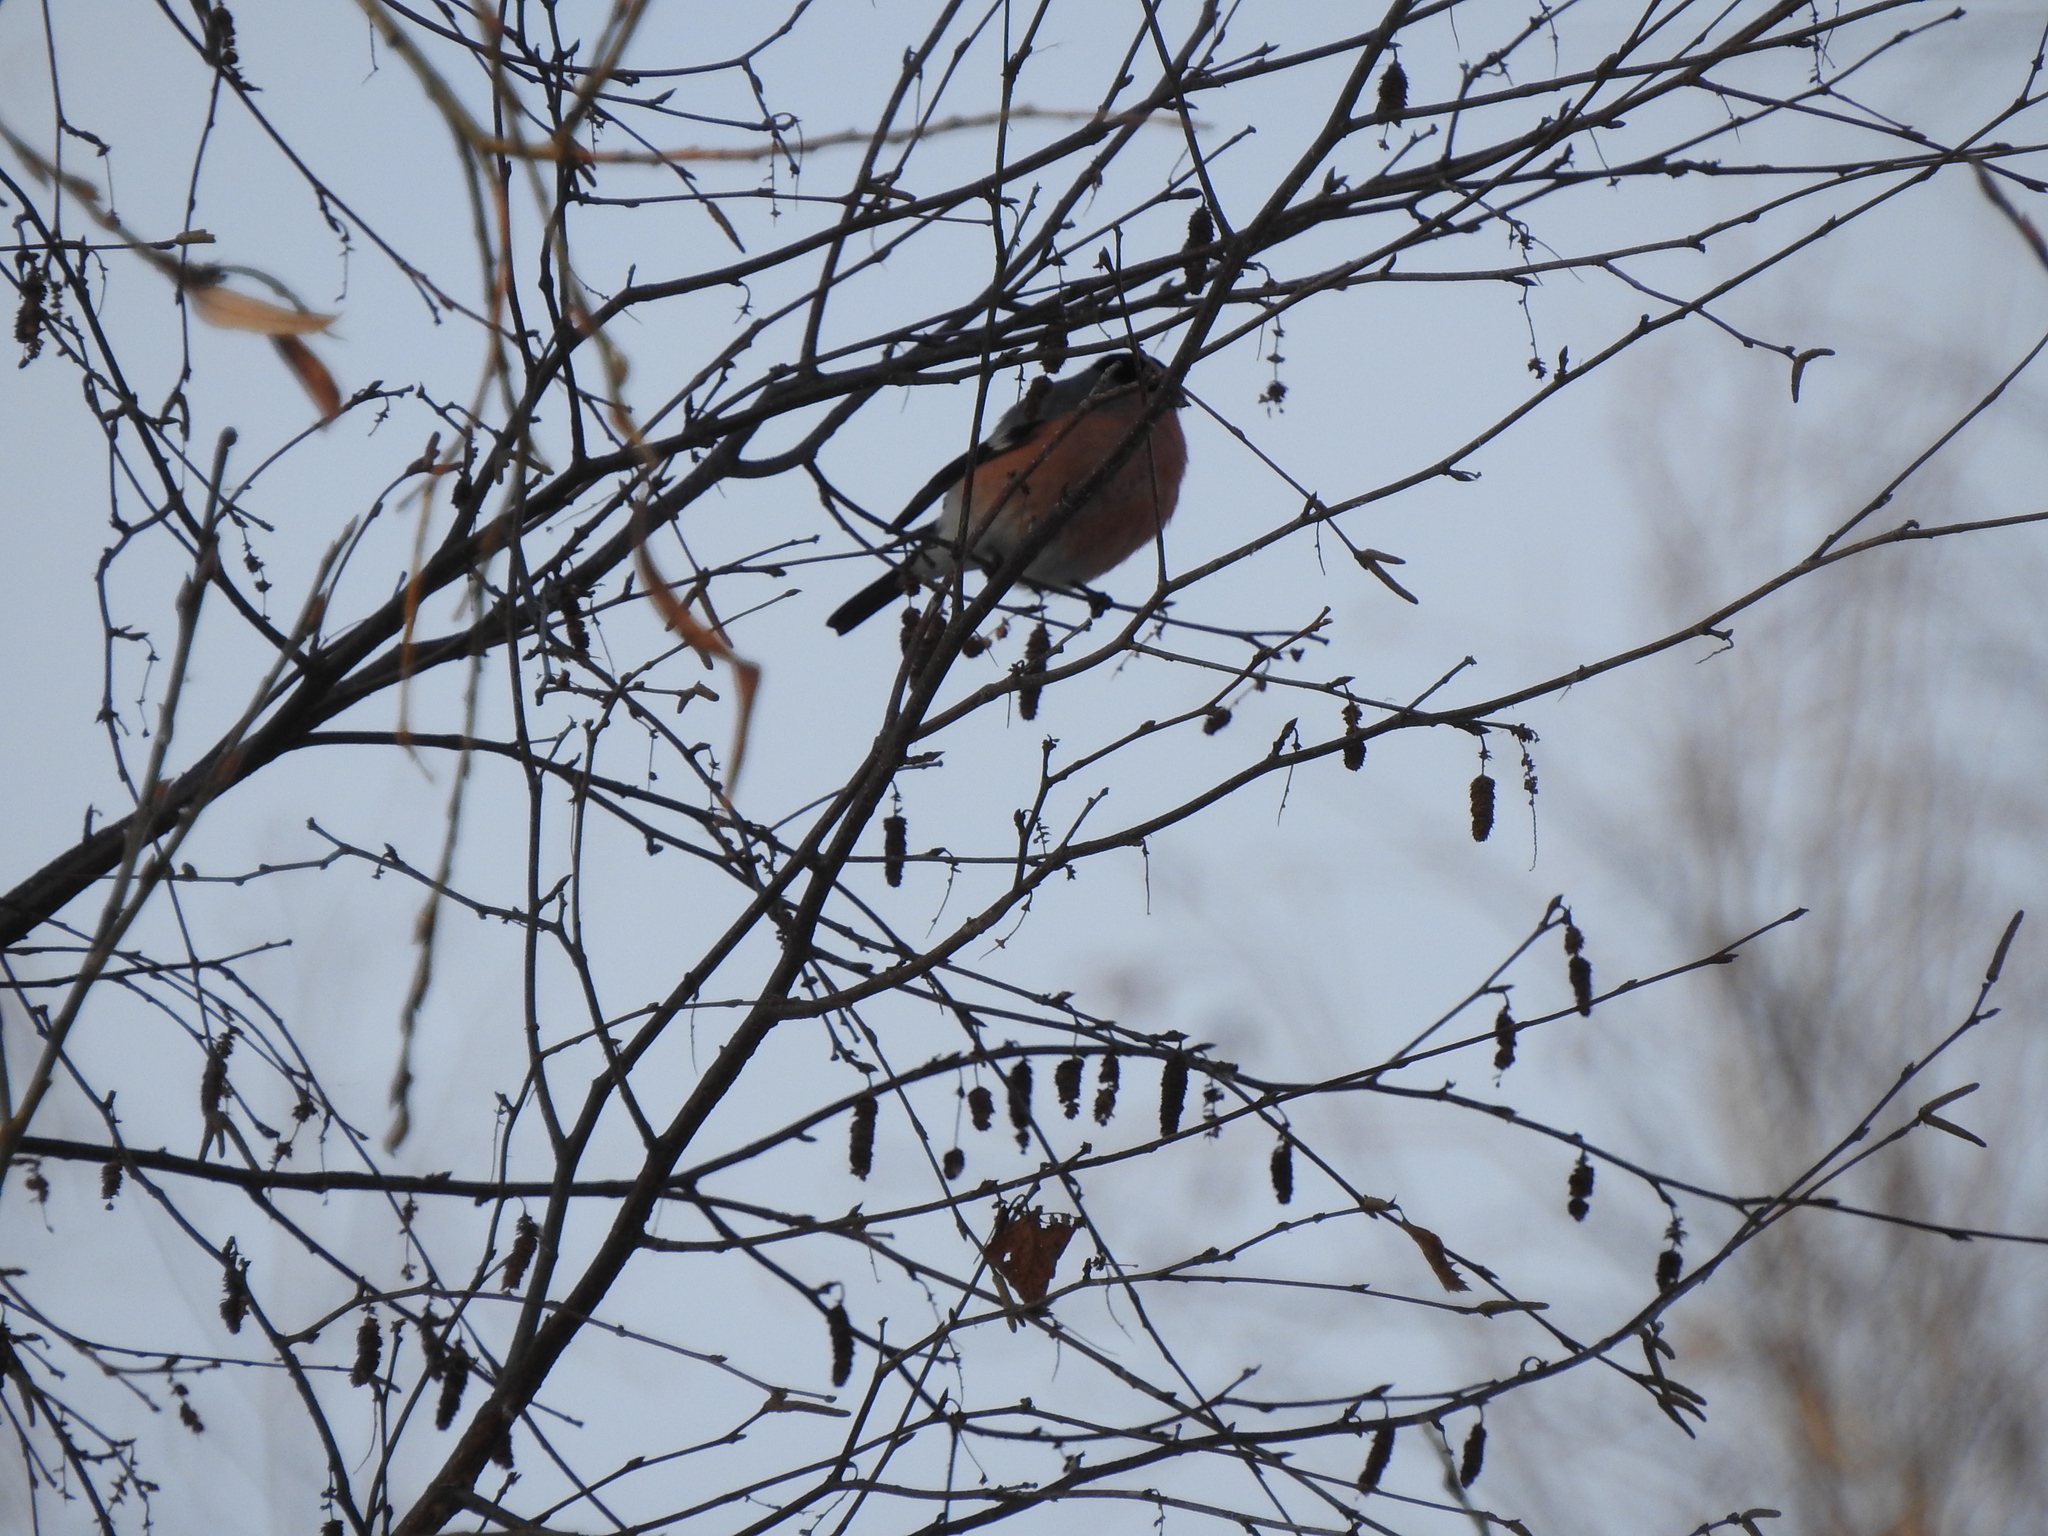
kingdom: Animalia
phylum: Chordata
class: Aves
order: Passeriformes
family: Fringillidae
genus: Pyrrhula
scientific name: Pyrrhula pyrrhula
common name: Eurasian bullfinch
